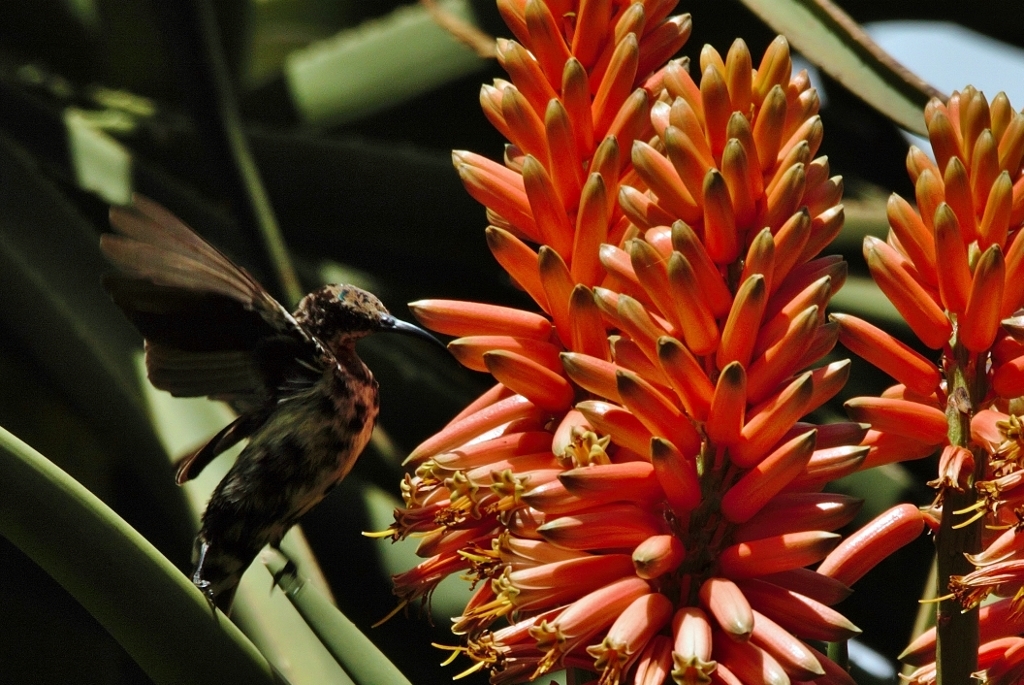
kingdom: Animalia
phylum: Chordata
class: Aves
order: Passeriformes
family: Nectariniidae
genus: Chalcomitra
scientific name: Chalcomitra amethystina
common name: Amethyst sunbird
